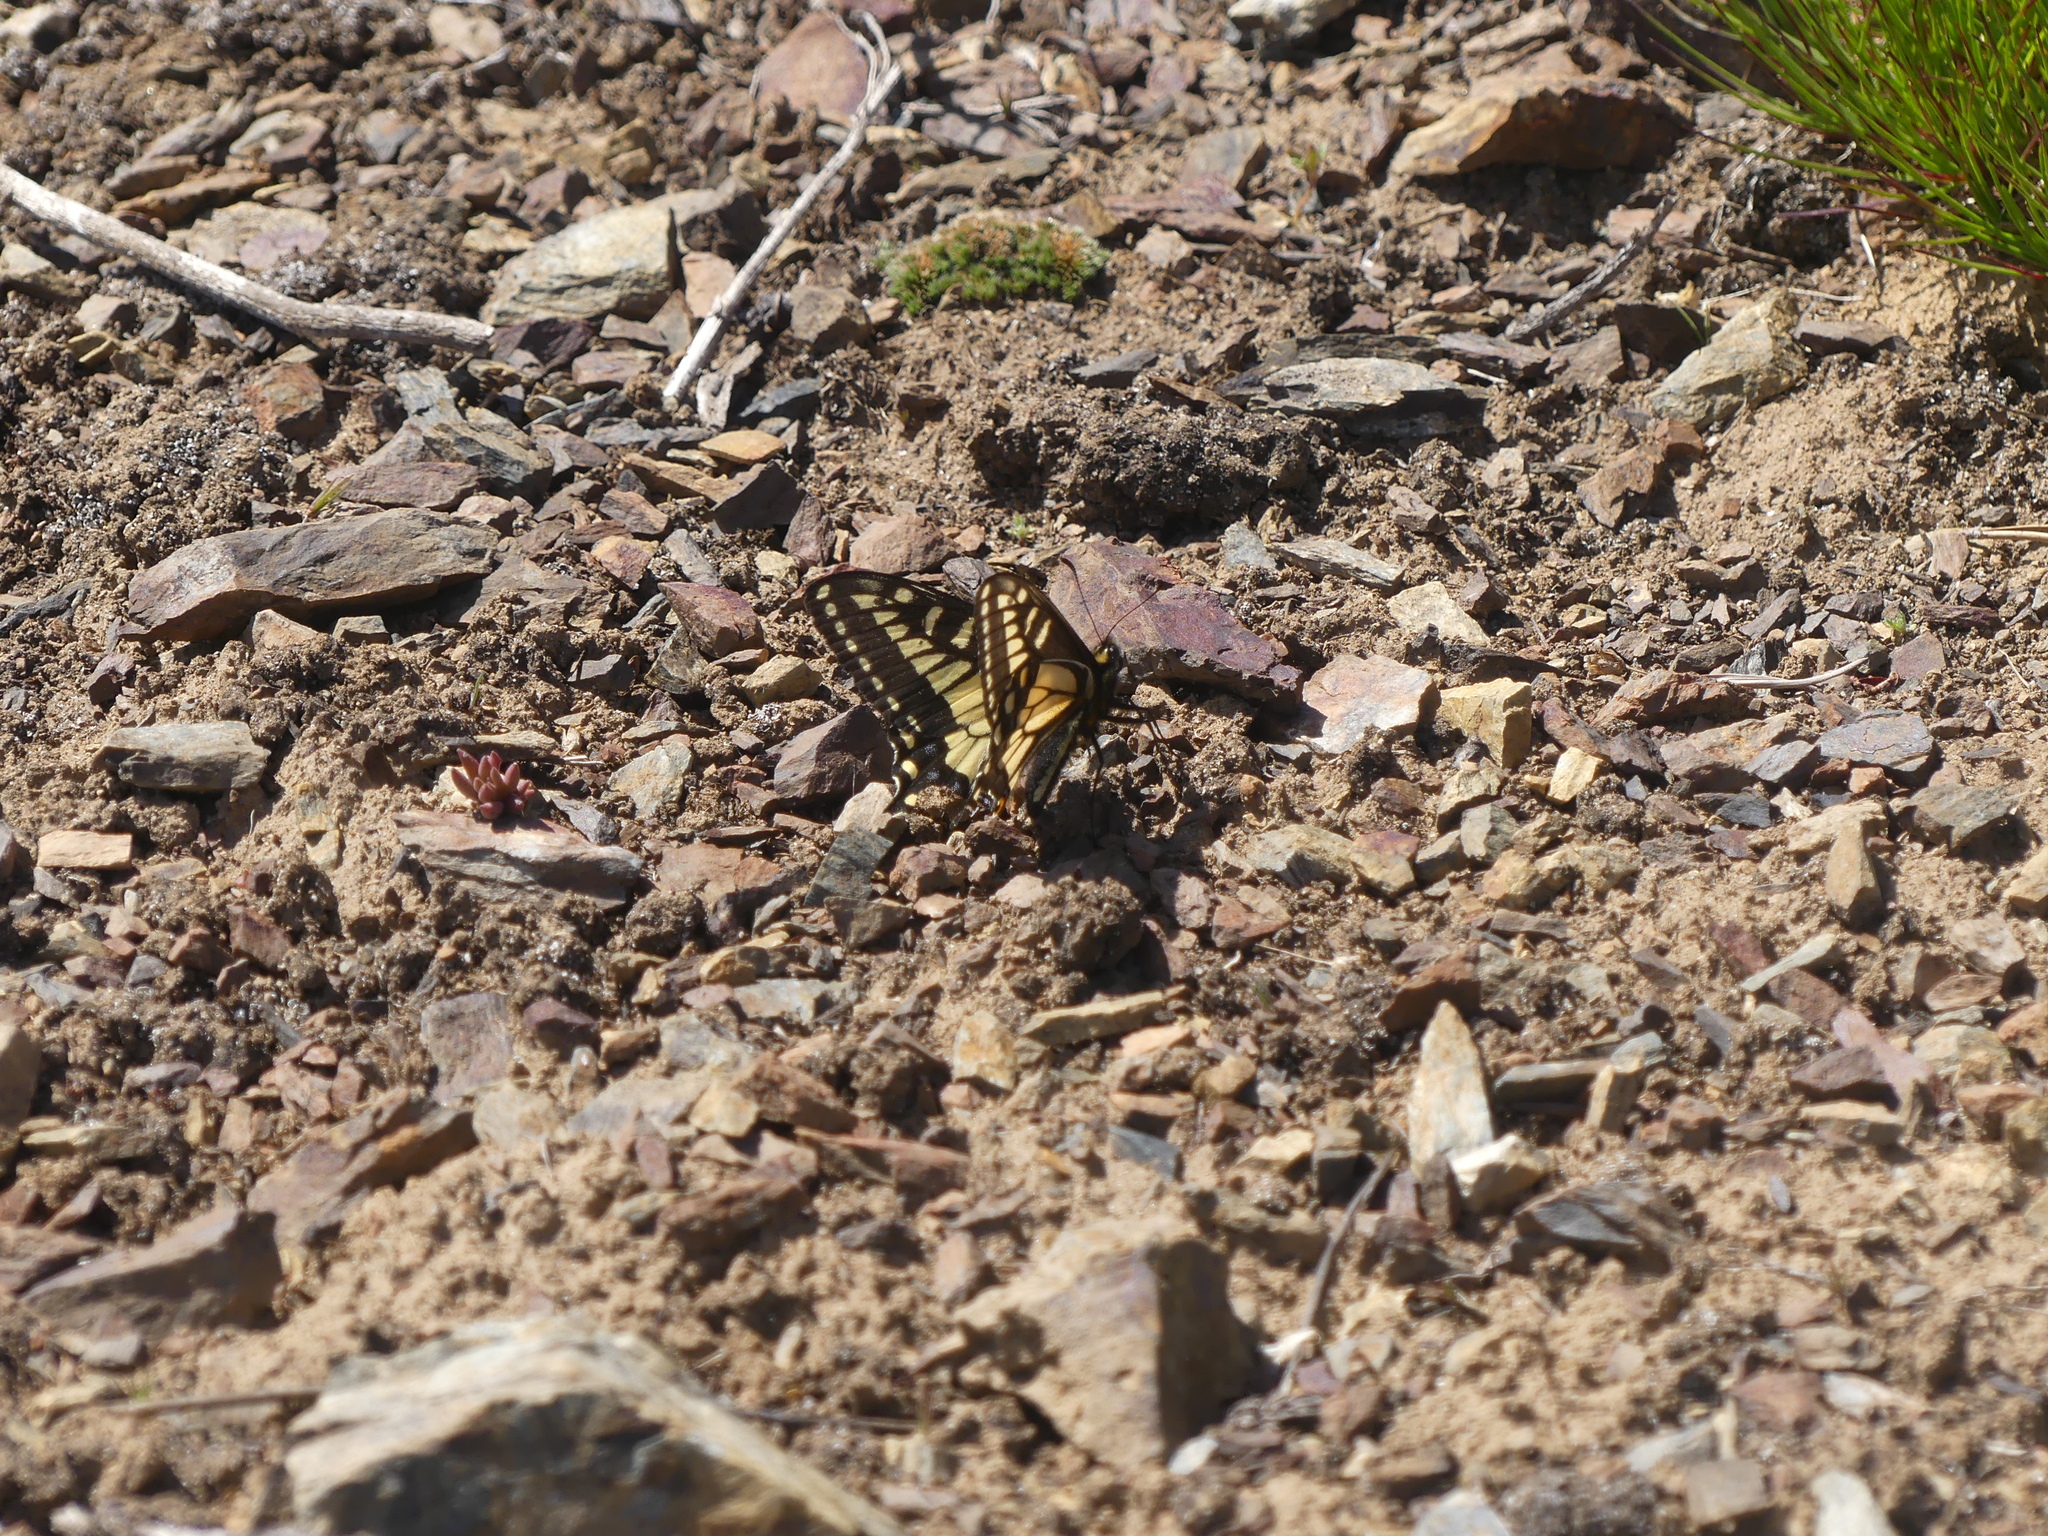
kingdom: Animalia
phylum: Arthropoda
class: Insecta
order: Lepidoptera
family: Papilionidae
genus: Papilio
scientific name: Papilio zelicaon
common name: Anise swallowtail
